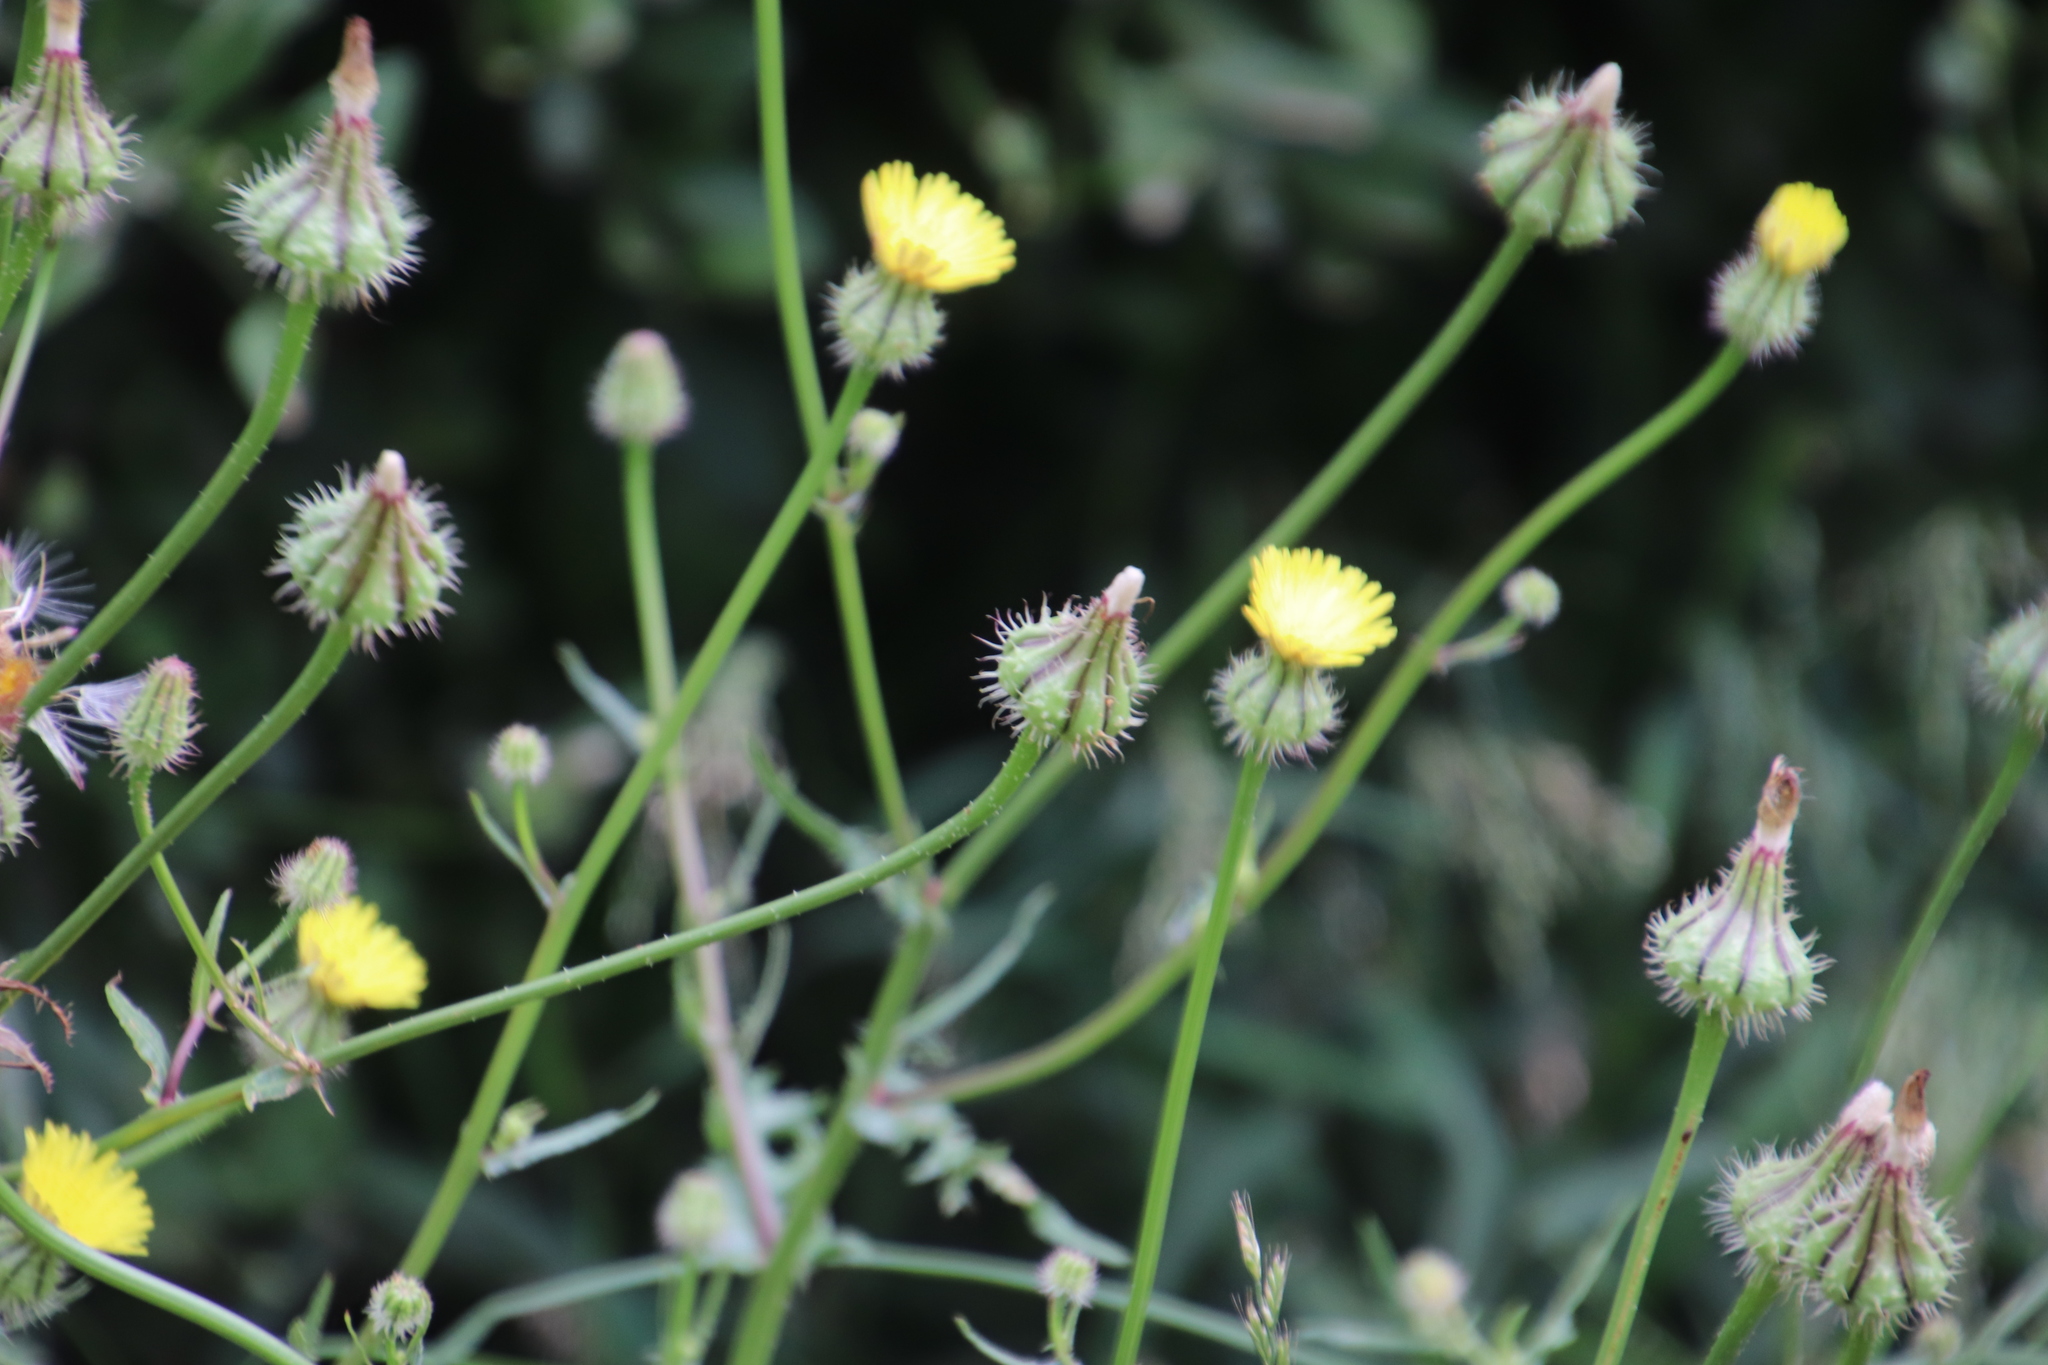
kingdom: Plantae
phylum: Tracheophyta
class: Magnoliopsida
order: Asterales
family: Asteraceae
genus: Urospermum
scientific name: Urospermum picroides
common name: False hawkbit
